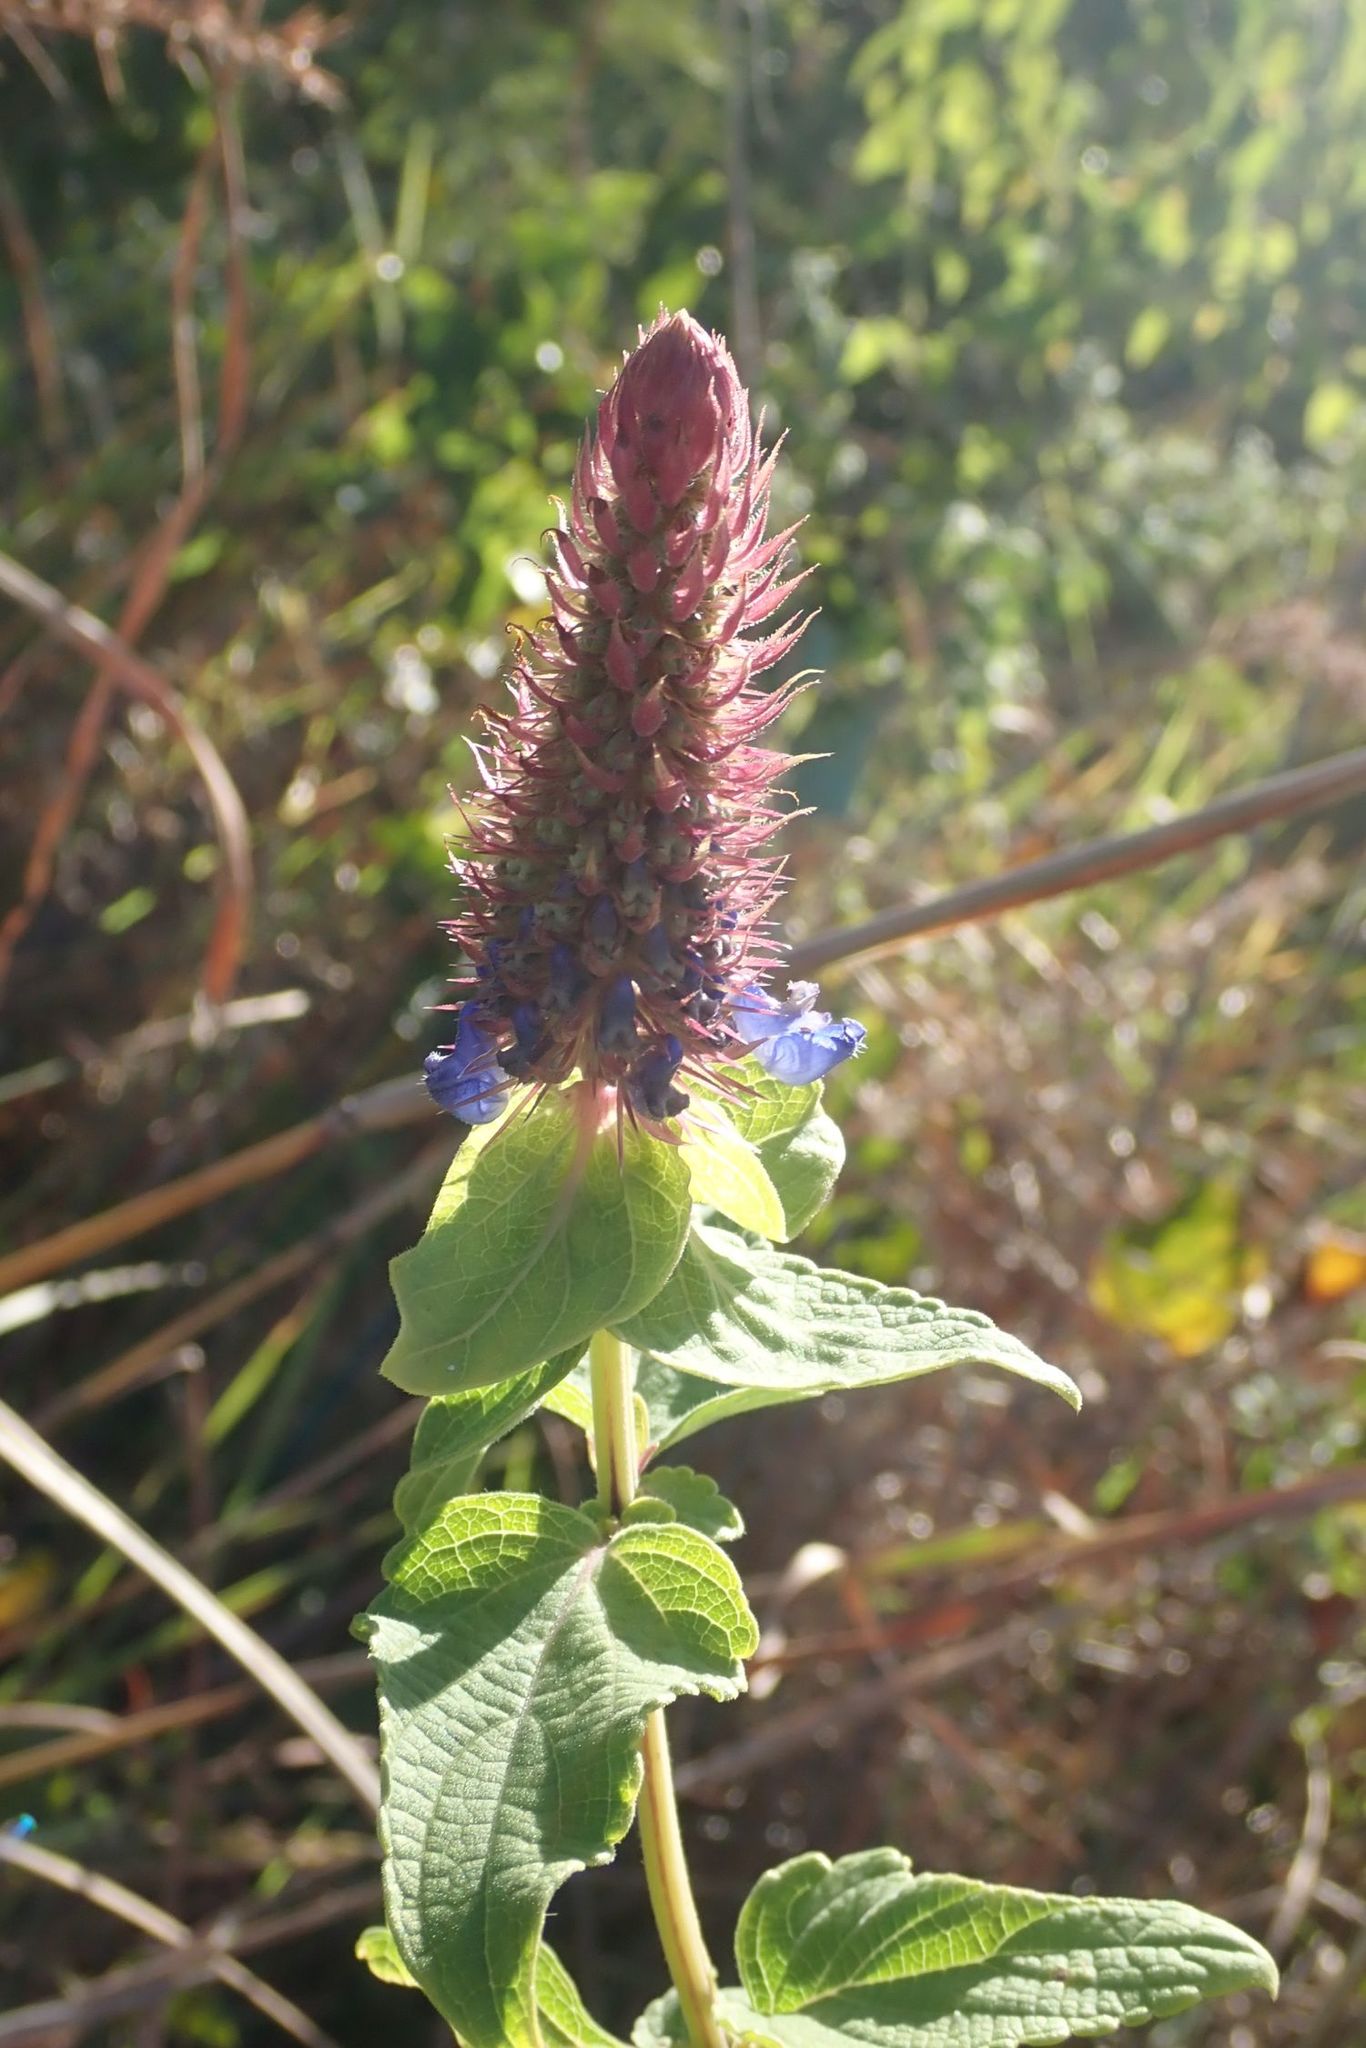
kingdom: Plantae
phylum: Tracheophyta
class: Magnoliopsida
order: Lamiales
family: Lamiaceae
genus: Coleus
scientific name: Coleus livingstonei
